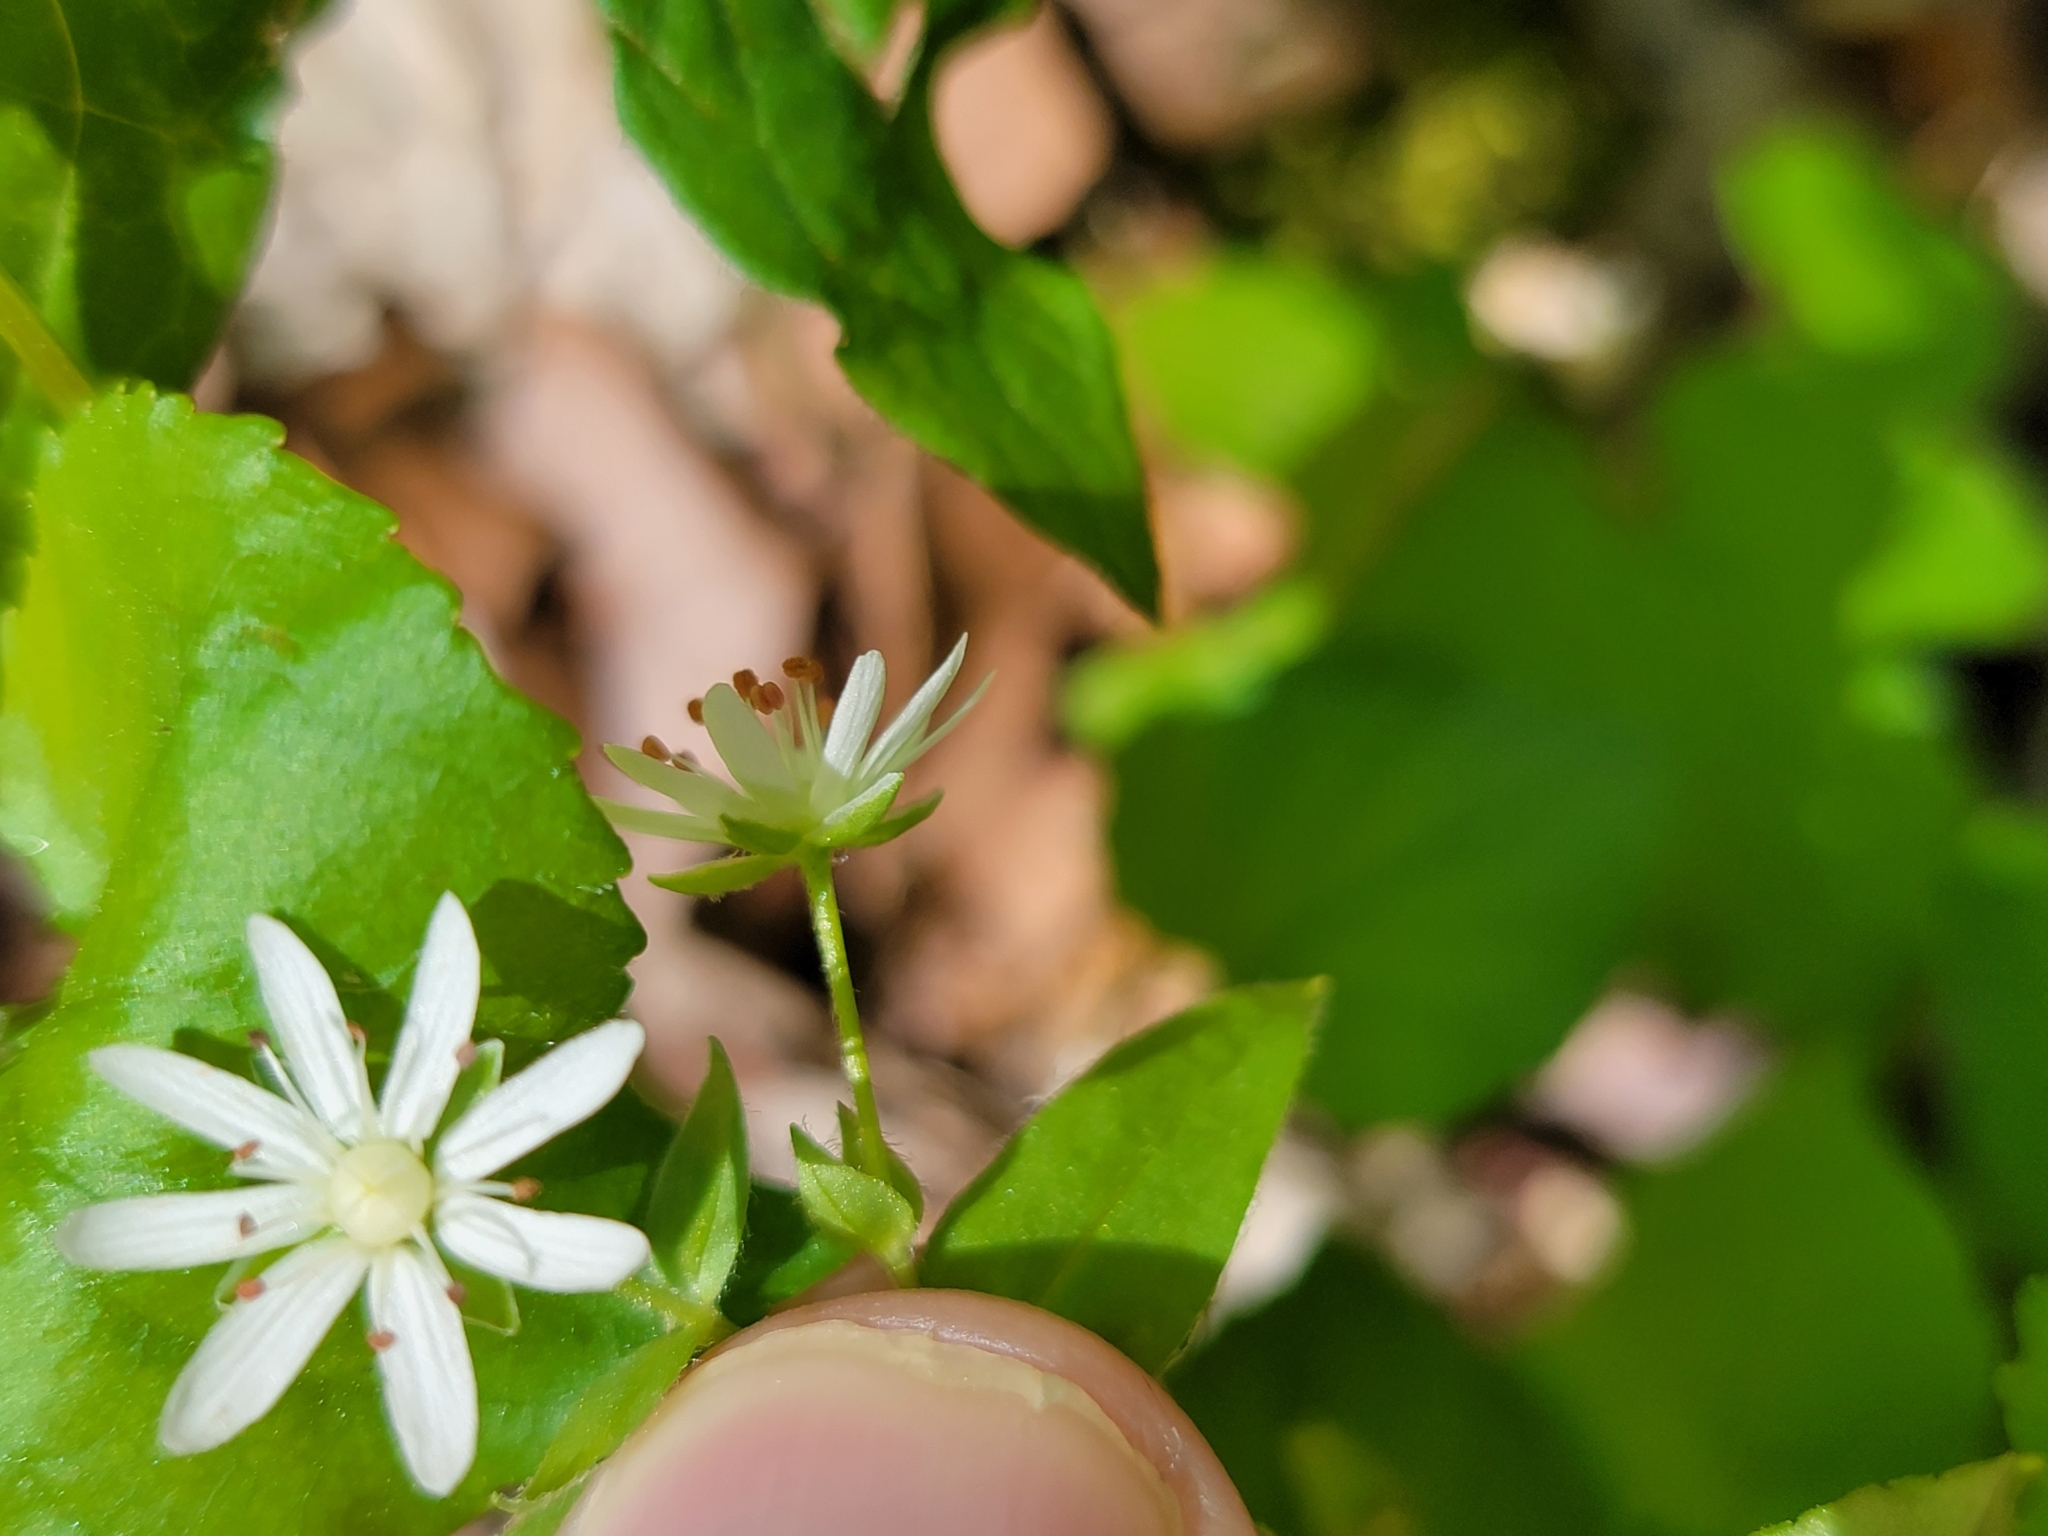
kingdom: Plantae
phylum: Tracheophyta
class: Magnoliopsida
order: Caryophyllales
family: Caryophyllaceae
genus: Stellaria
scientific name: Stellaria pubera
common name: Star chickweed
